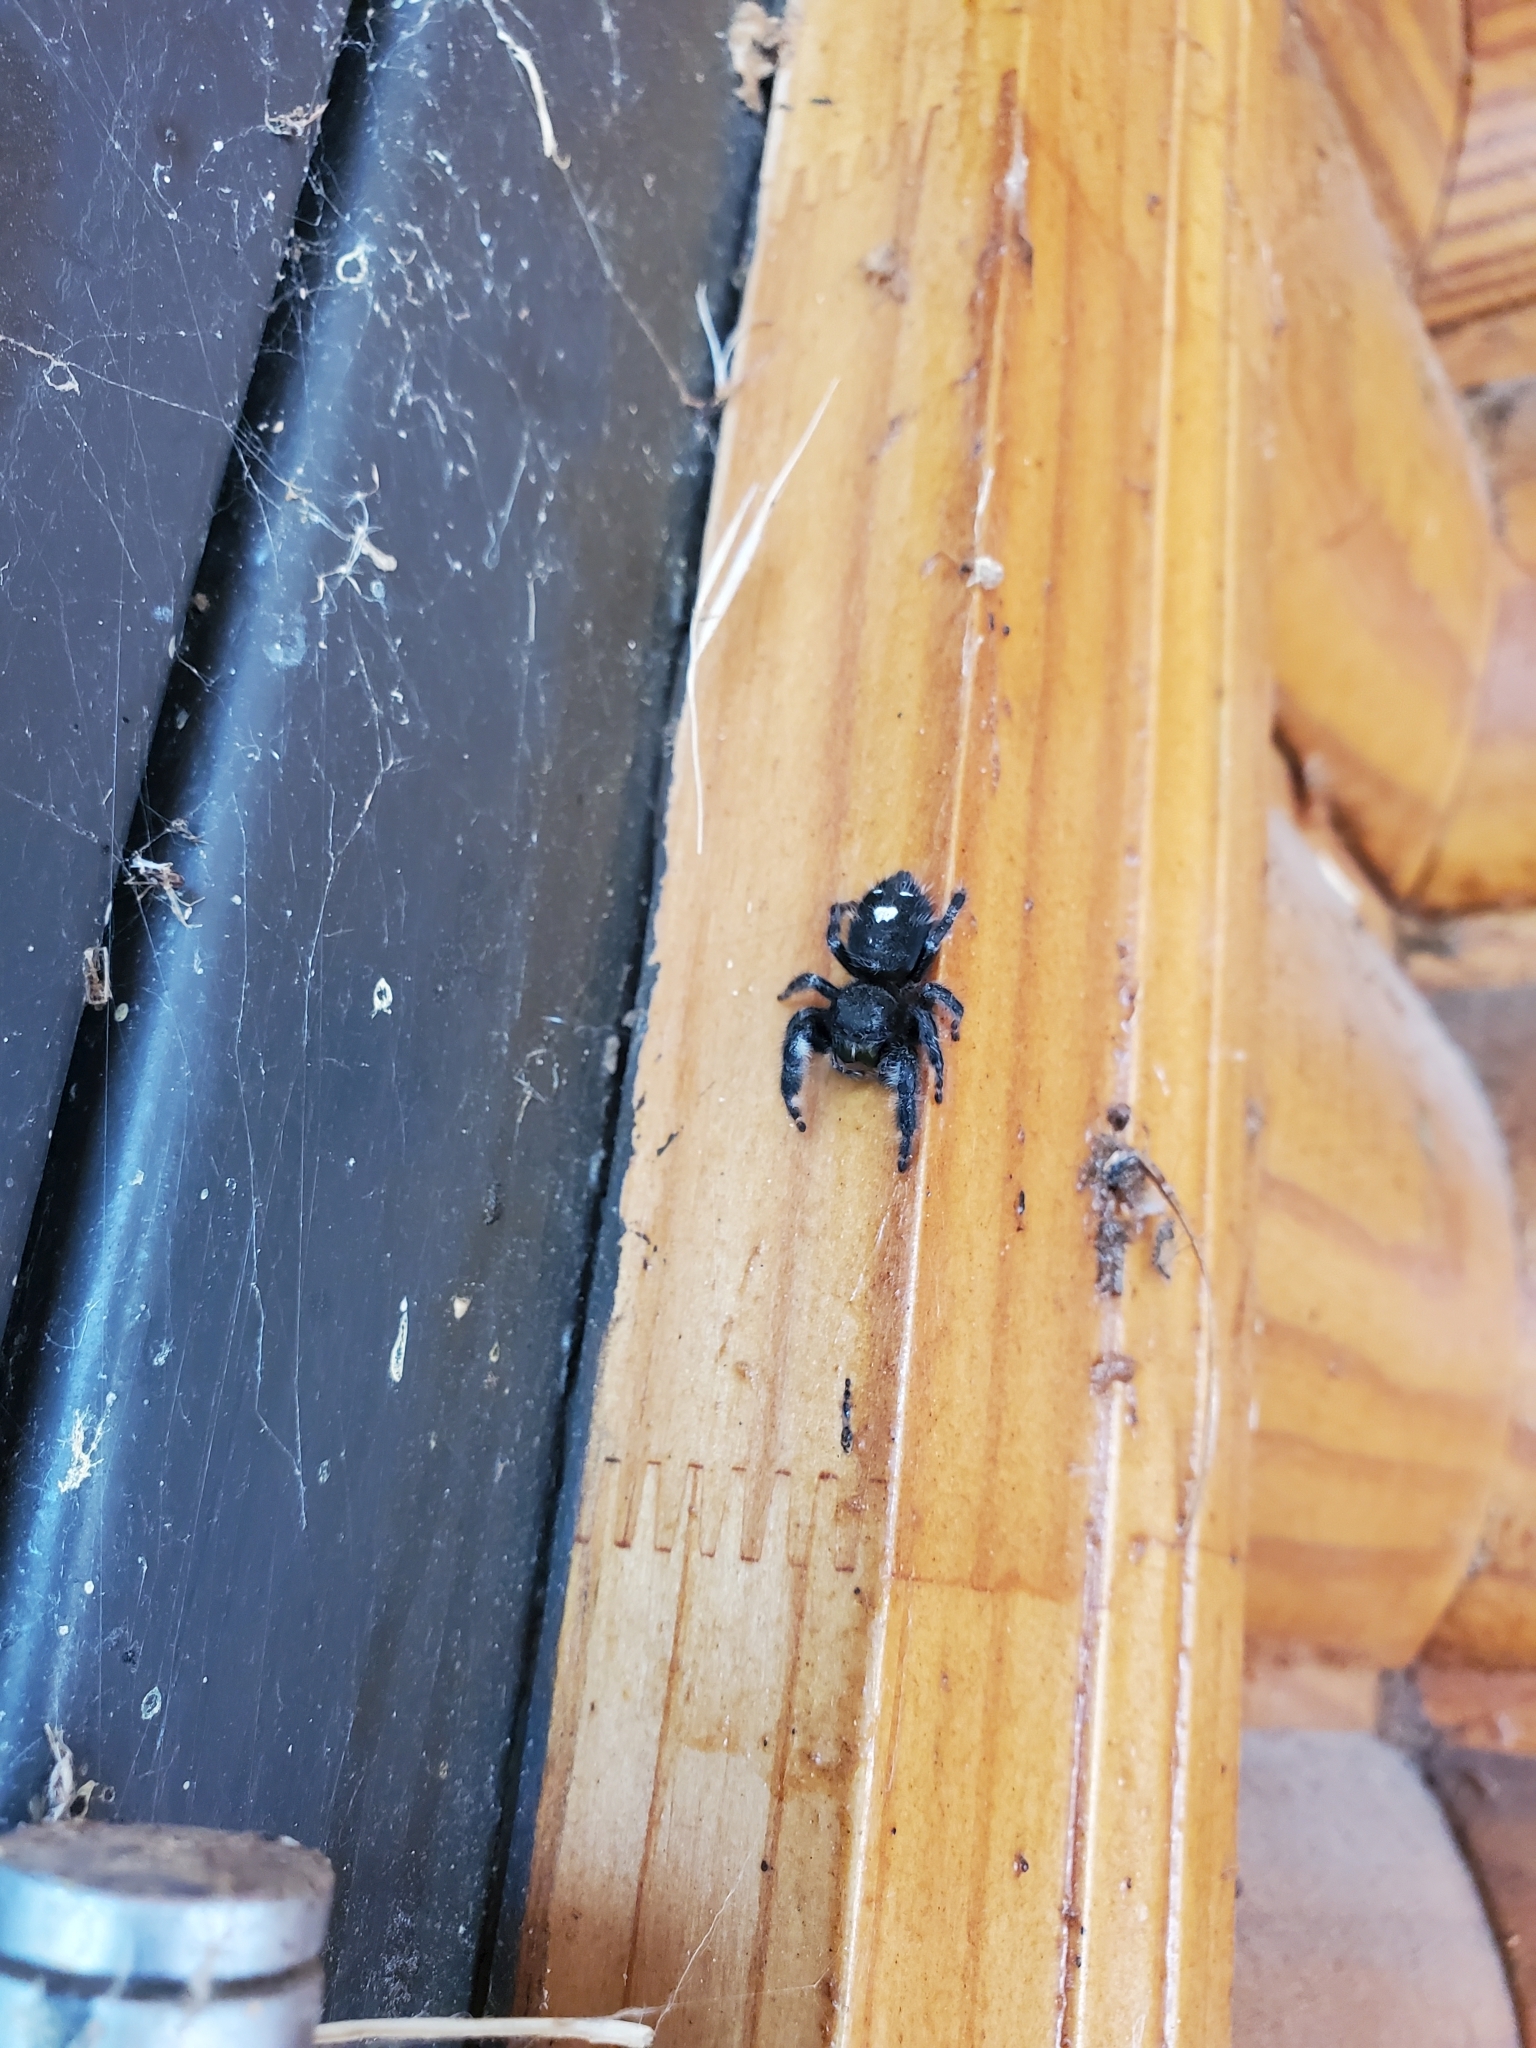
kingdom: Animalia
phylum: Arthropoda
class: Arachnida
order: Araneae
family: Salticidae
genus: Phidippus
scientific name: Phidippus audax
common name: Bold jumper
